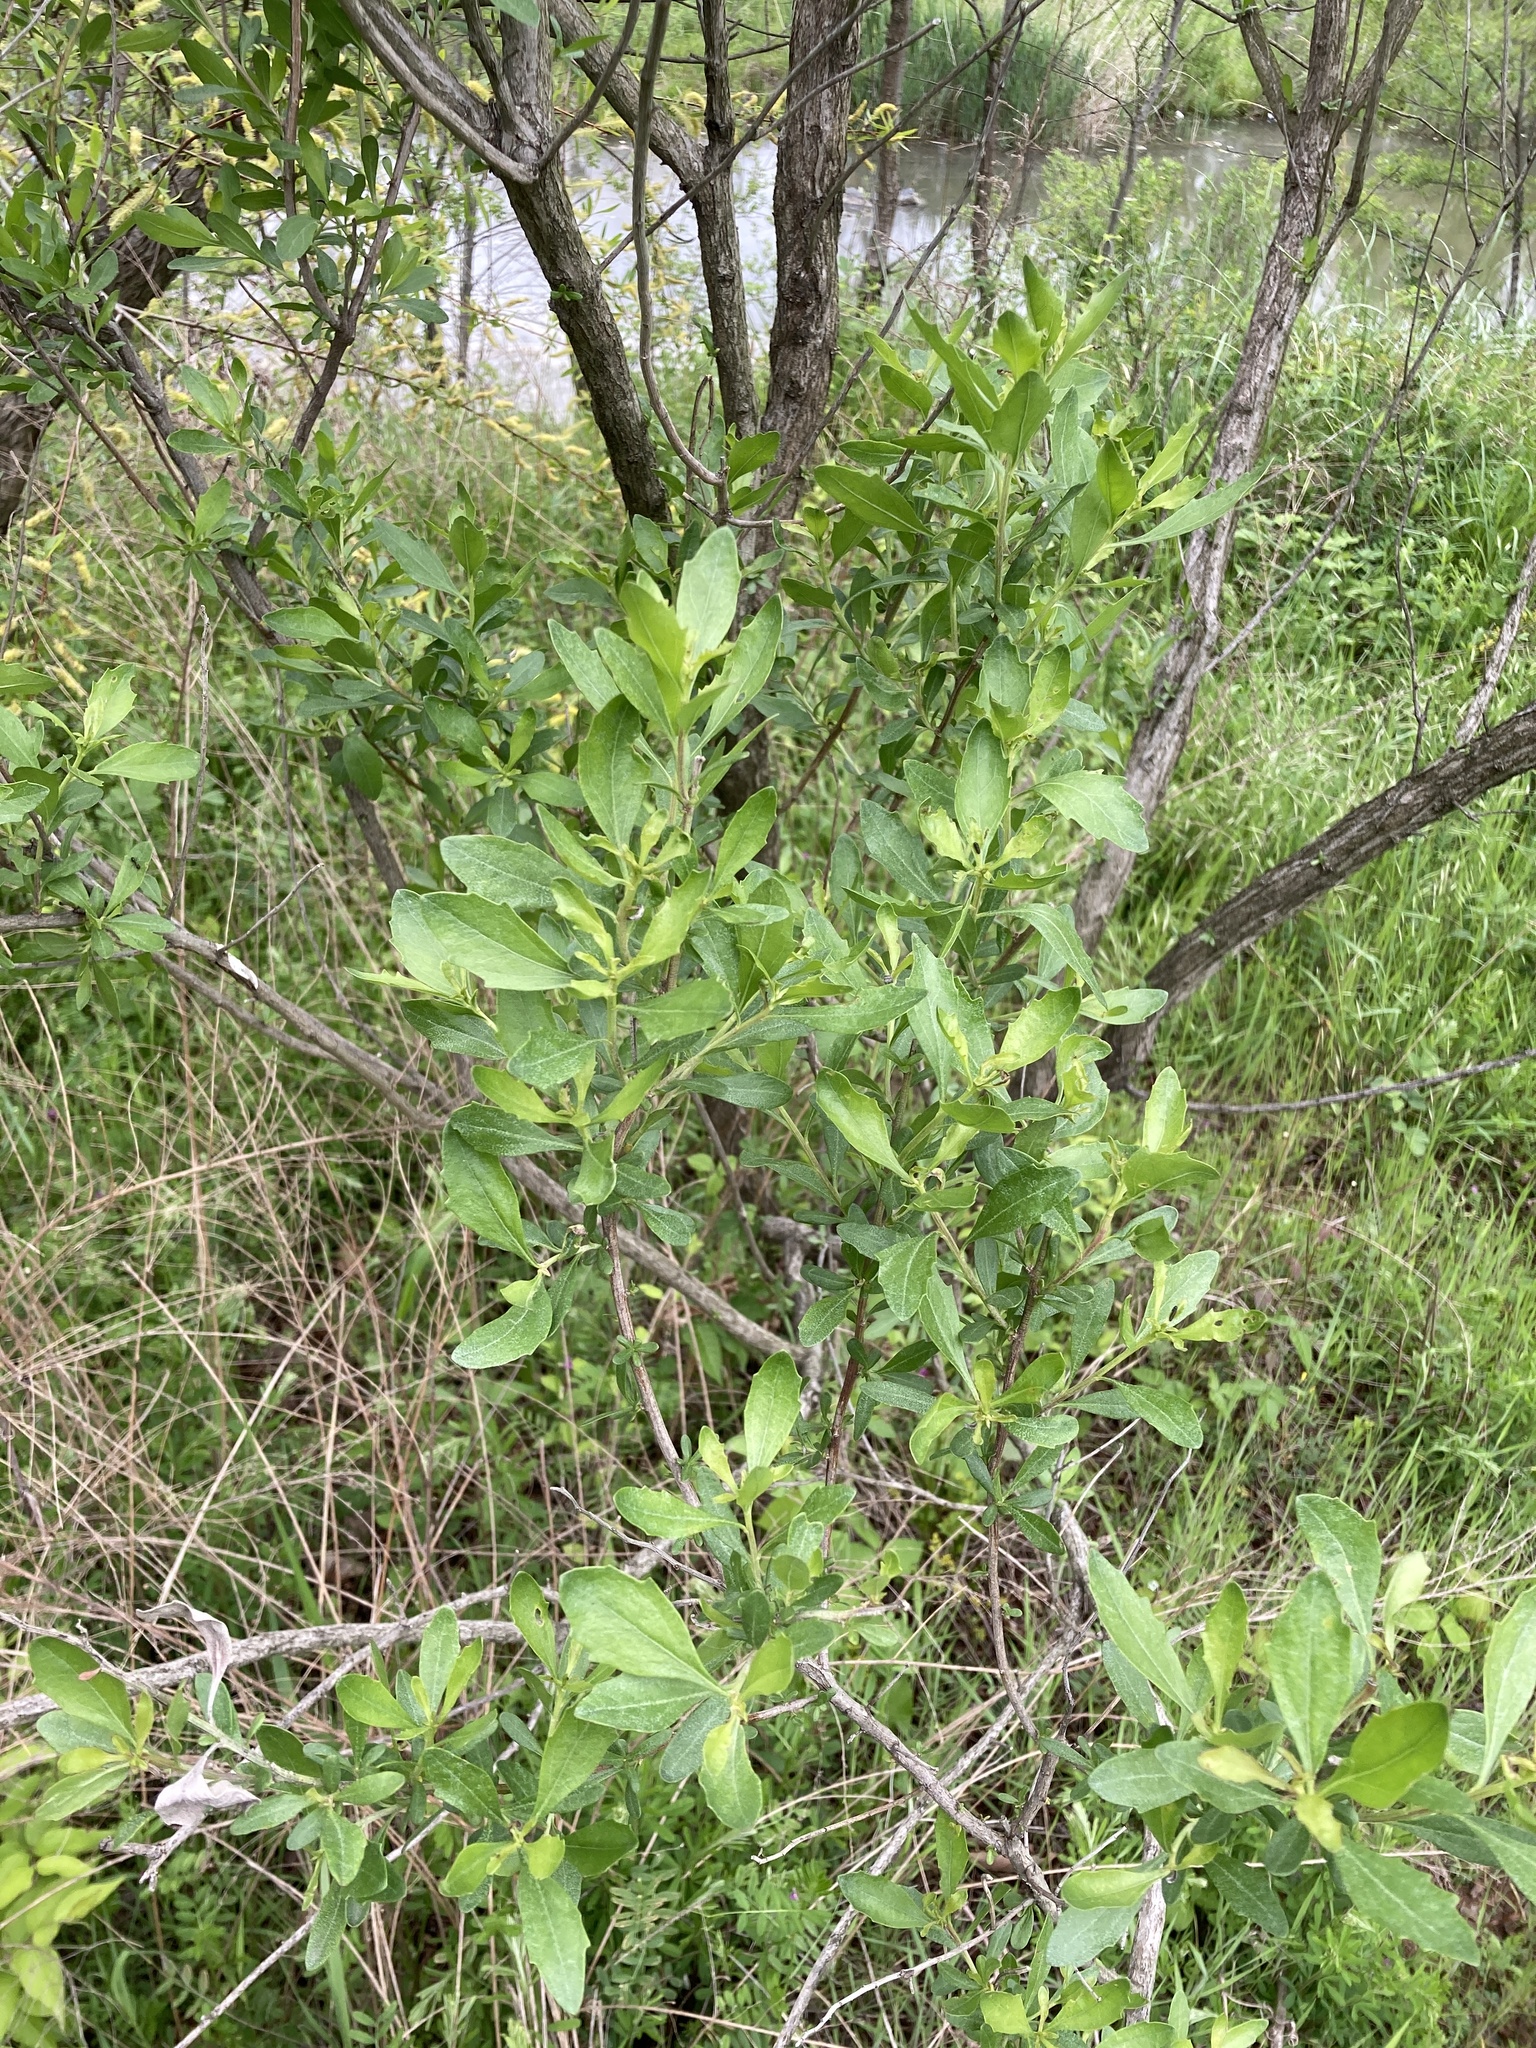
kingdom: Plantae
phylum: Tracheophyta
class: Magnoliopsida
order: Asterales
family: Asteraceae
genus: Baccharis
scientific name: Baccharis halimifolia
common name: Eastern baccharis
